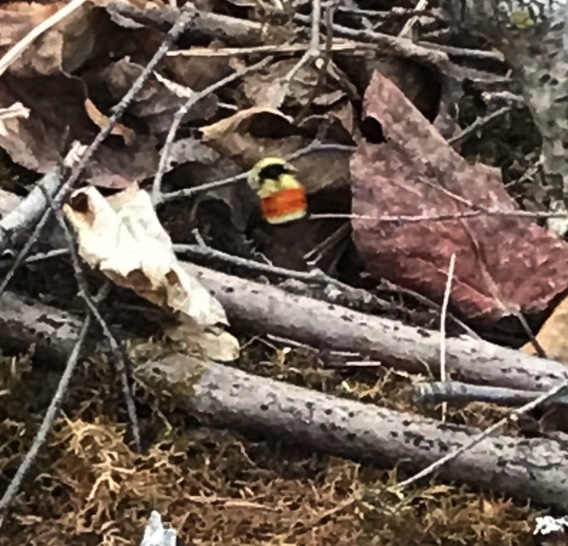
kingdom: Animalia
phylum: Arthropoda
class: Insecta
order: Hymenoptera
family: Apidae
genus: Bombus
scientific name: Bombus ternarius
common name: Tri-colored bumble bee
